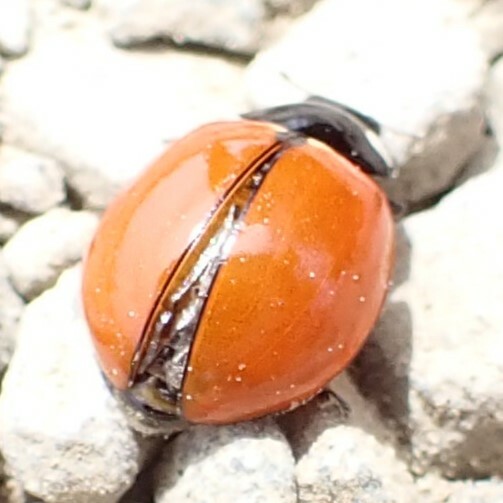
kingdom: Animalia
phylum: Arthropoda
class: Insecta
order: Coleoptera
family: Coccinellidae
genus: Coccinella
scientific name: Coccinella californica
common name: Lady beetle
